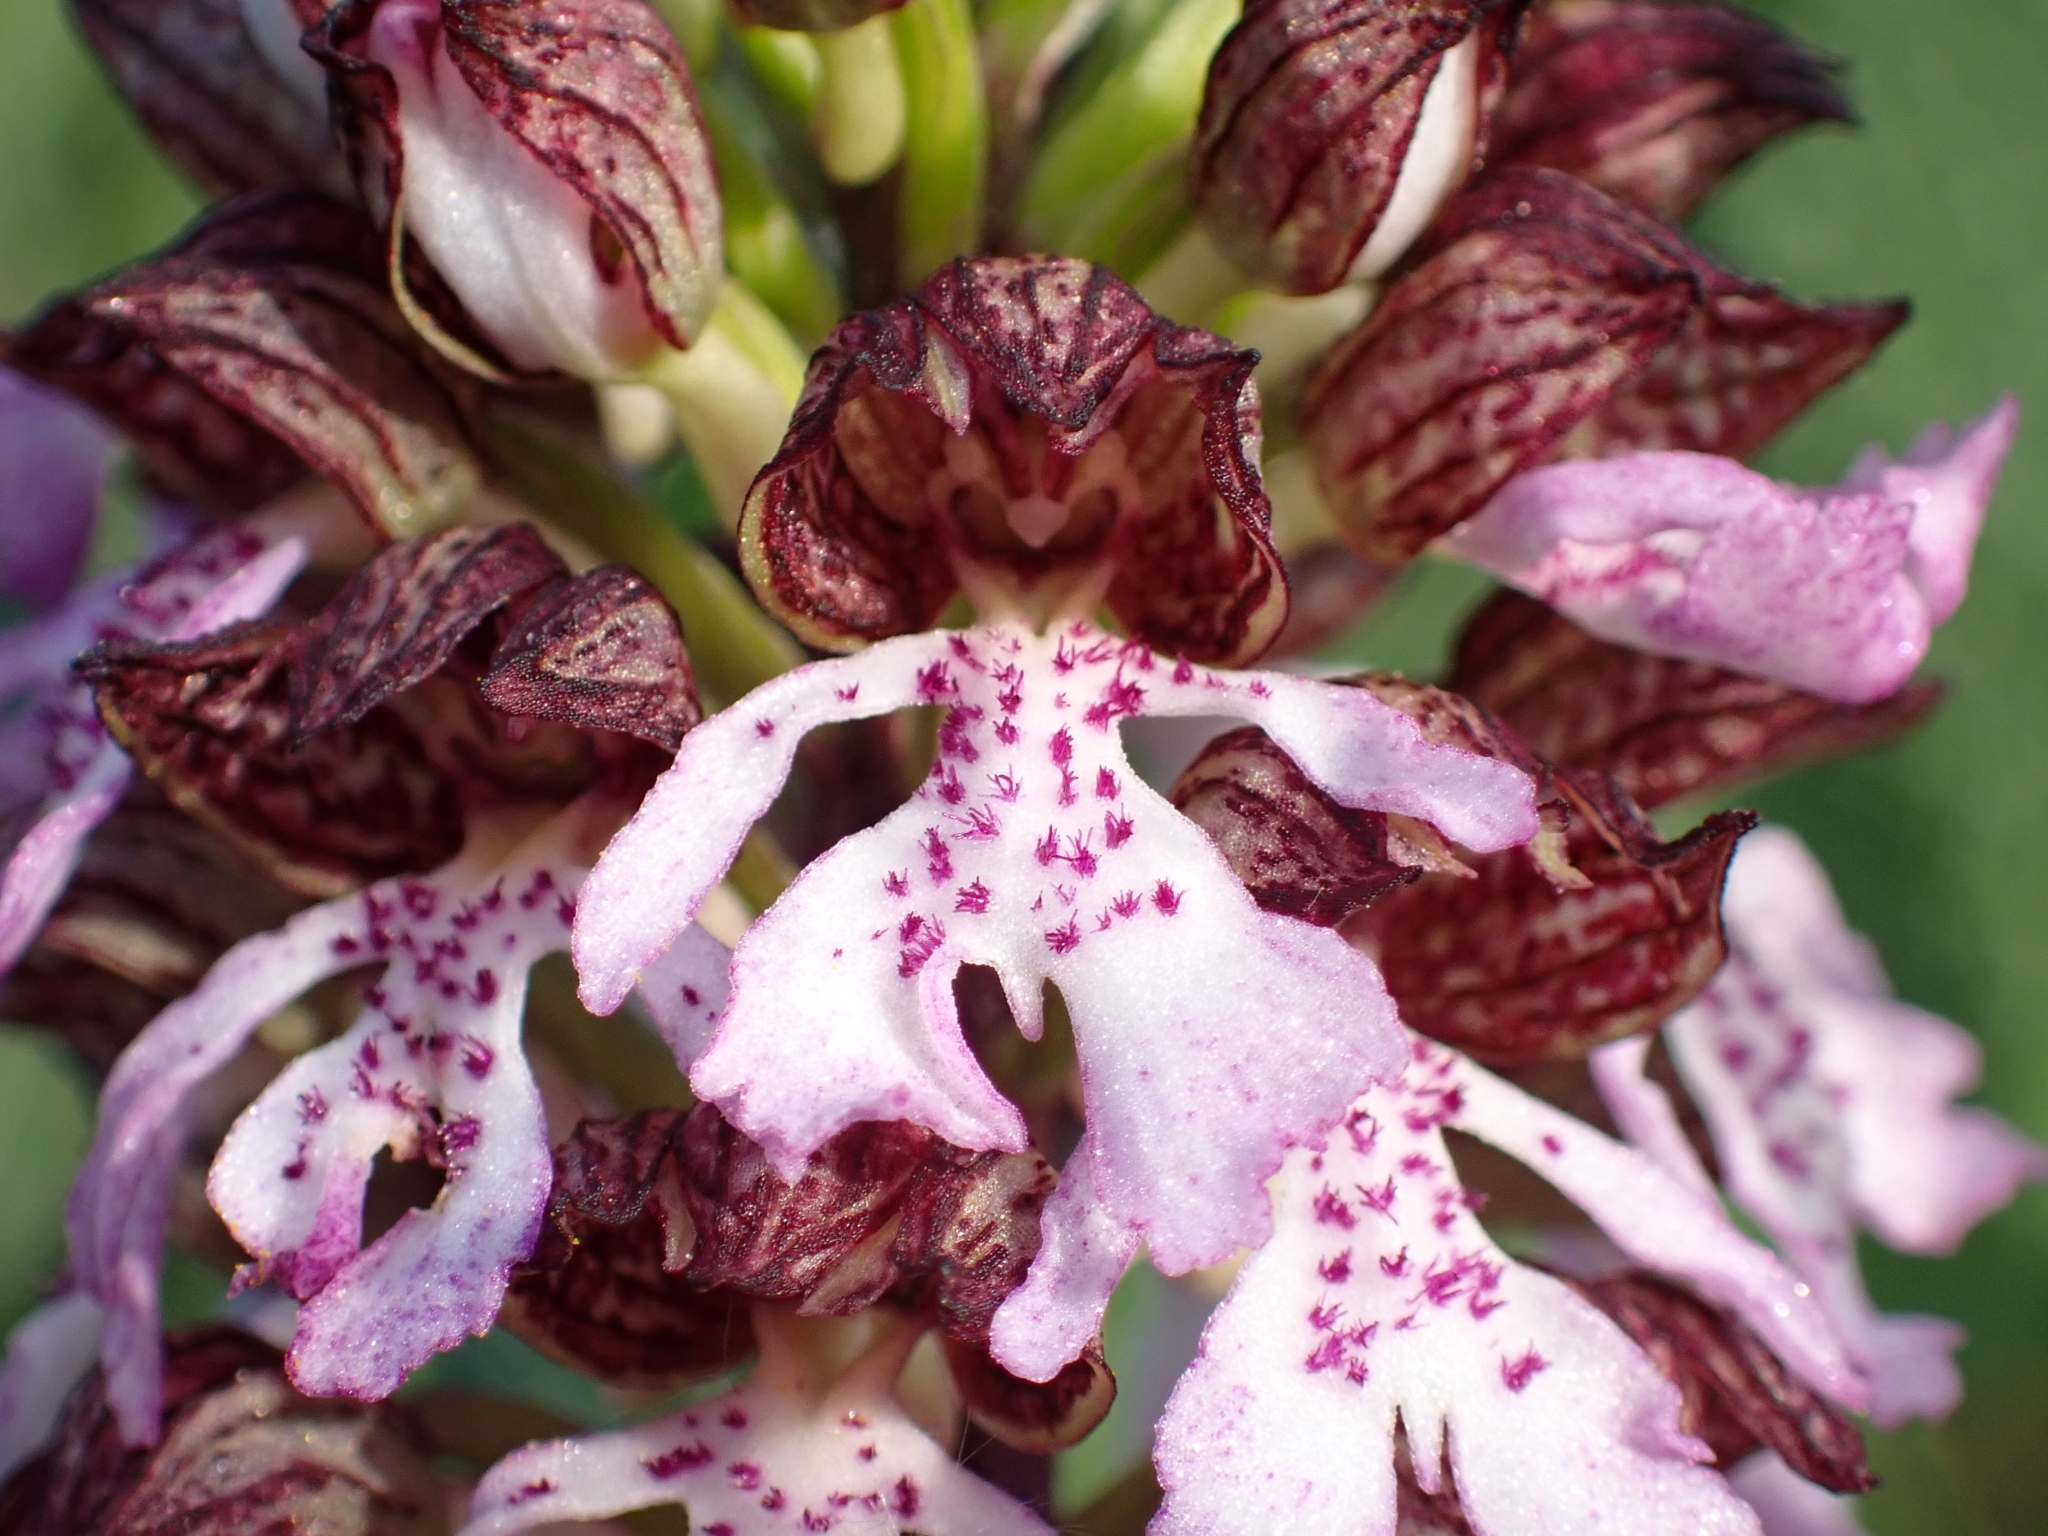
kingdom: Plantae
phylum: Tracheophyta
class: Liliopsida
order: Asparagales
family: Orchidaceae
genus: Orchis
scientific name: Orchis purpurea
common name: Lady orchid
